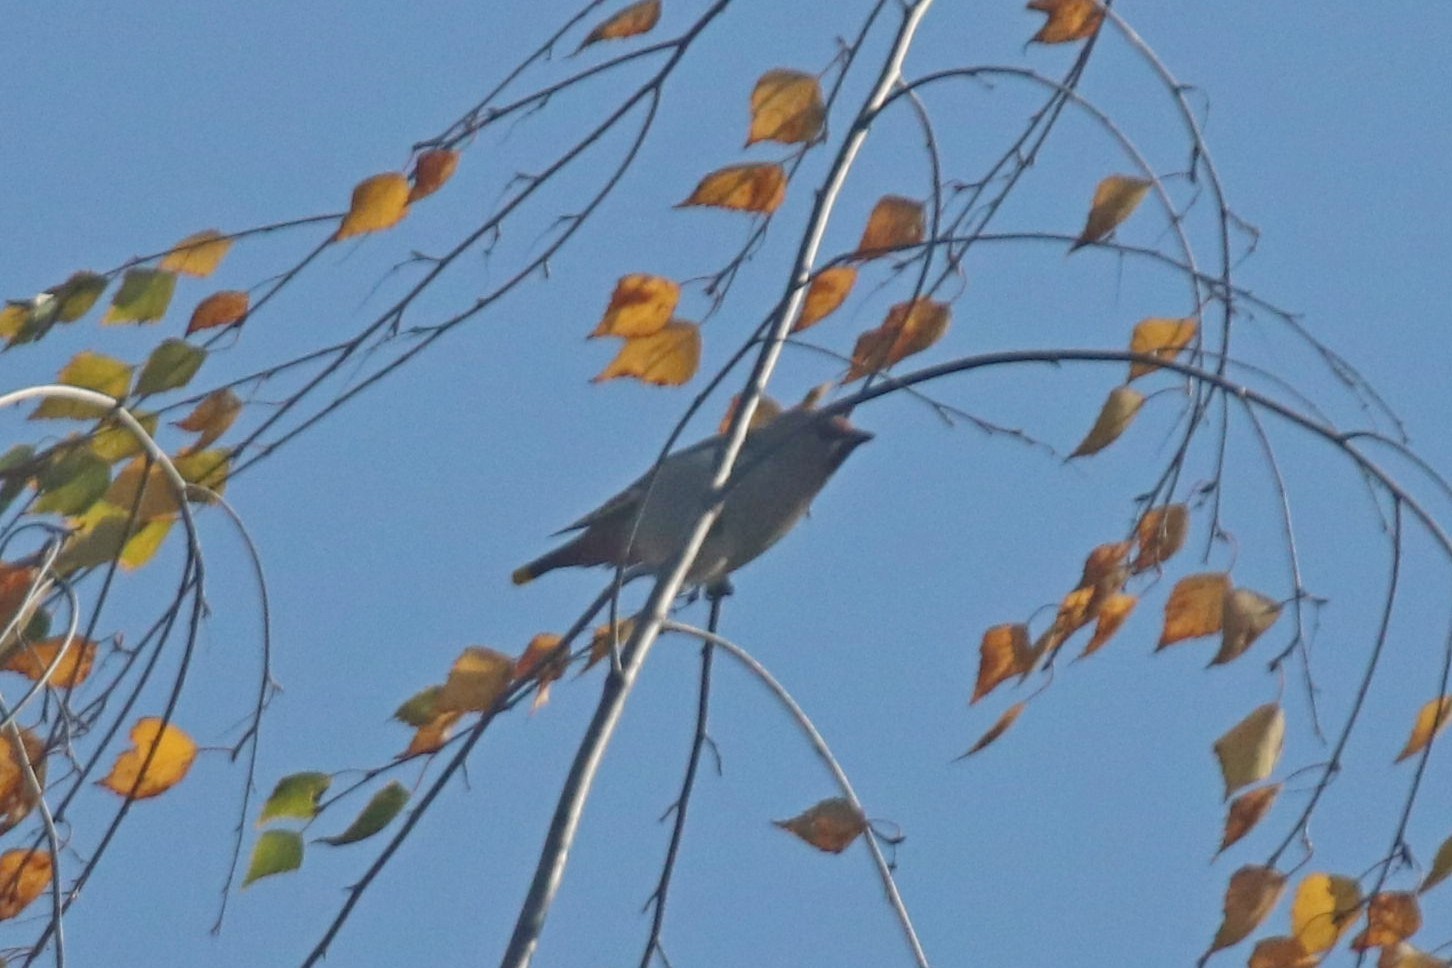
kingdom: Animalia
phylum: Chordata
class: Aves
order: Passeriformes
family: Bombycillidae
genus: Bombycilla
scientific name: Bombycilla garrulus
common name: Bohemian waxwing
